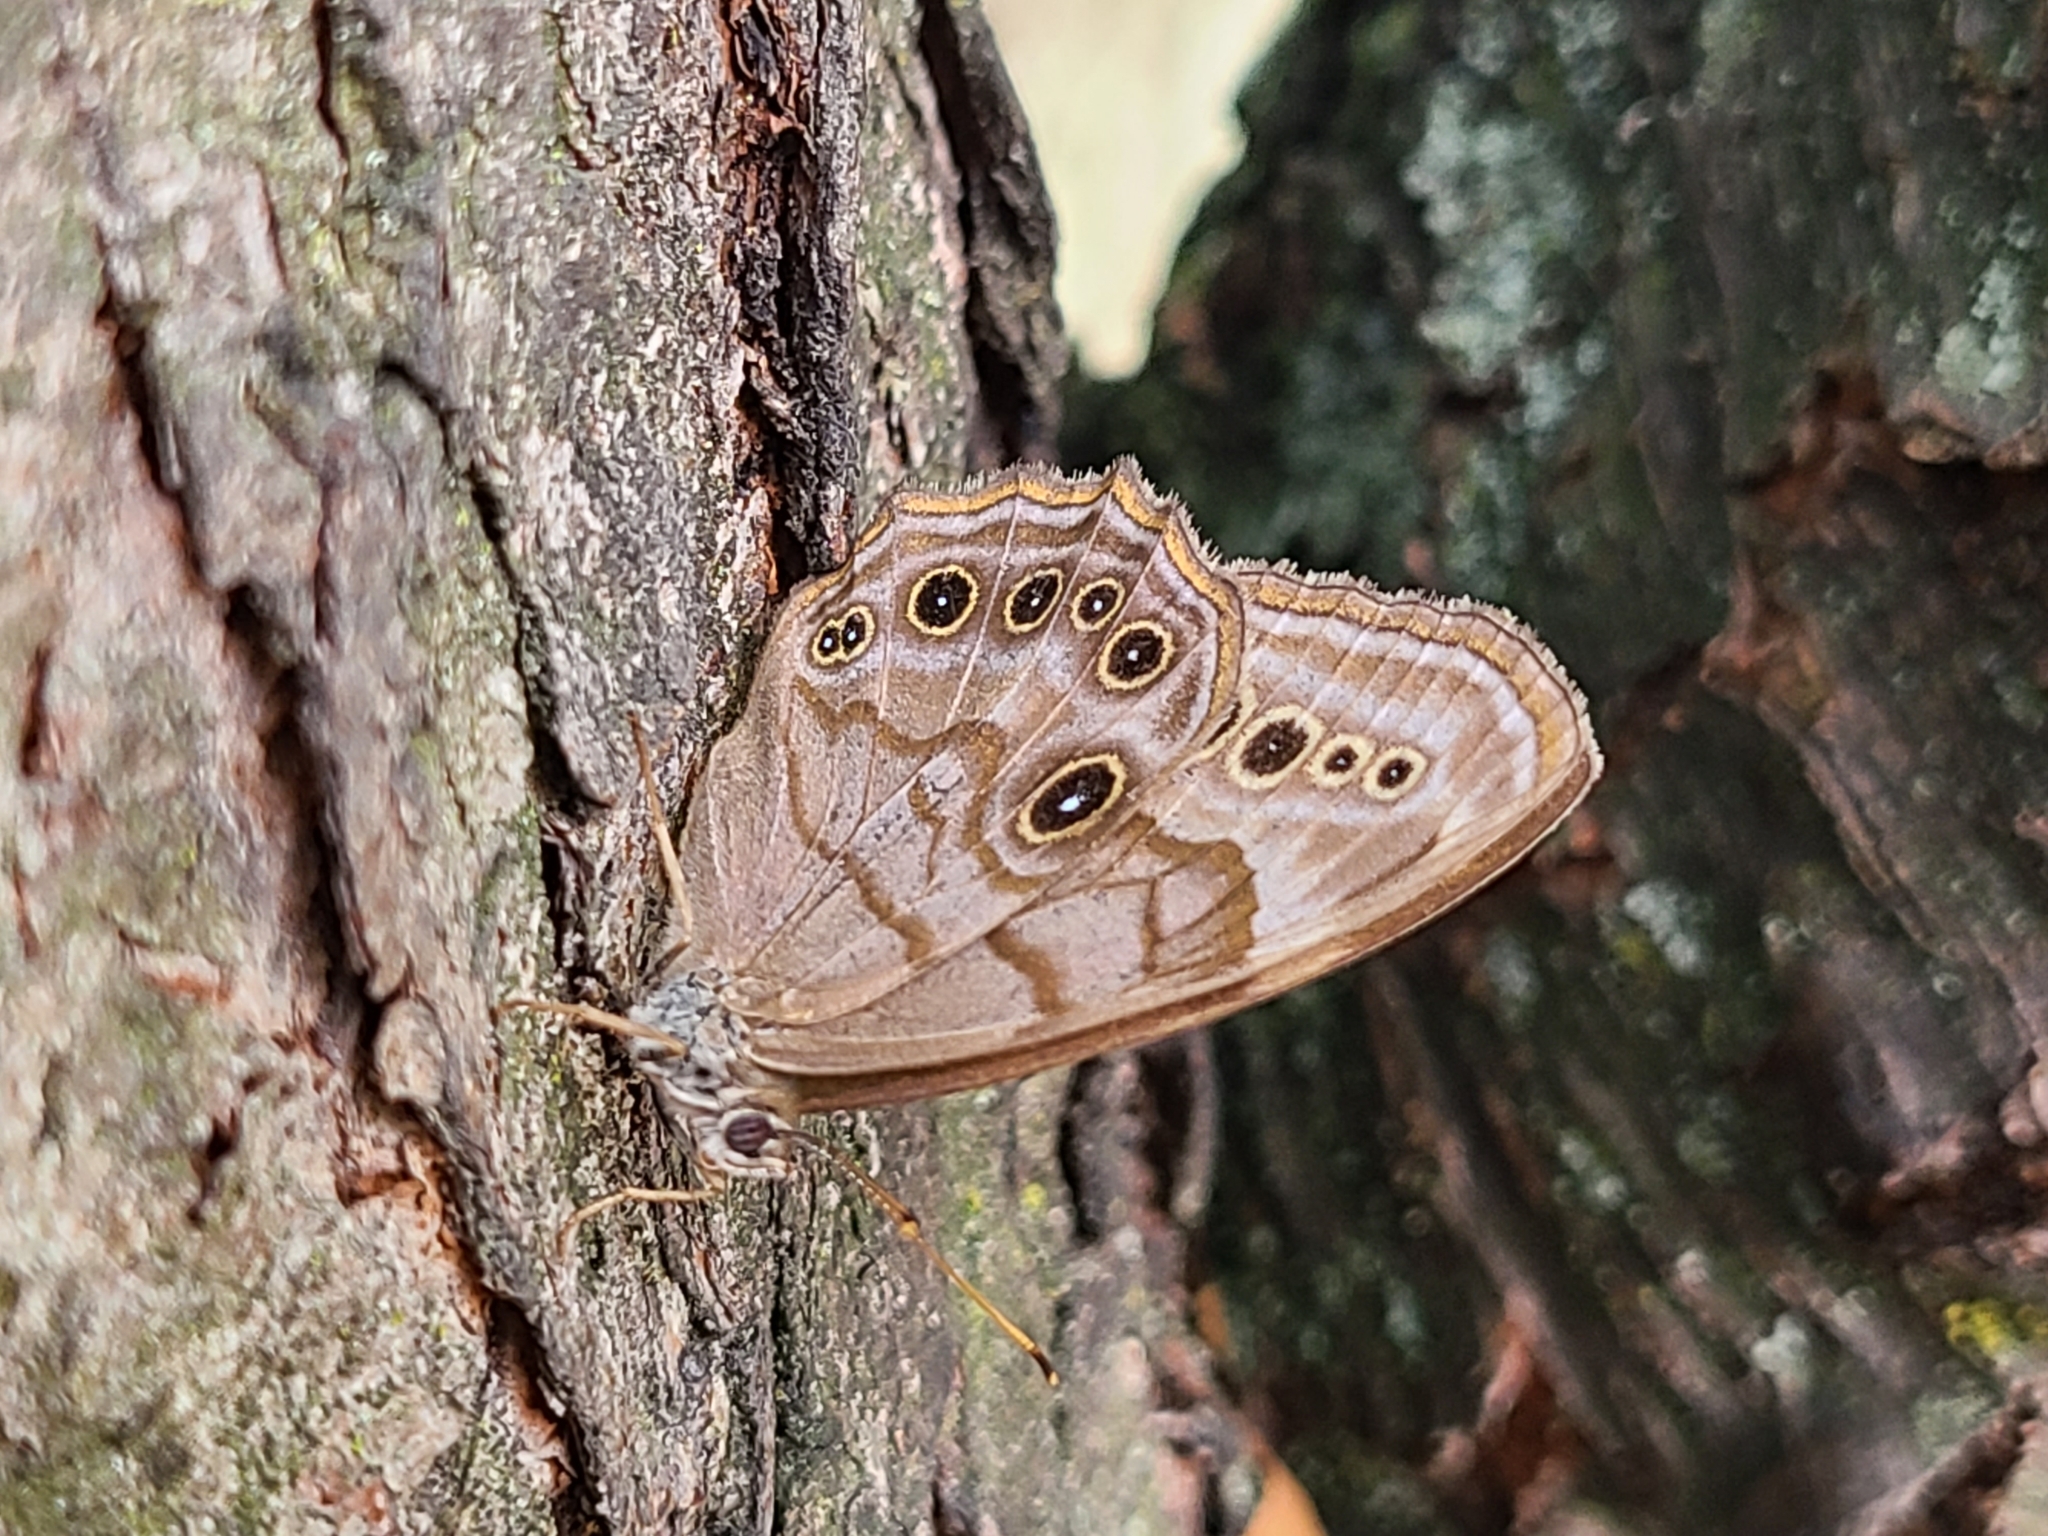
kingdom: Animalia
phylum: Arthropoda
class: Insecta
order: Lepidoptera
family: Nymphalidae
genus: Lethe
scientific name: Lethe anthedon
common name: Northern pearly-eye
